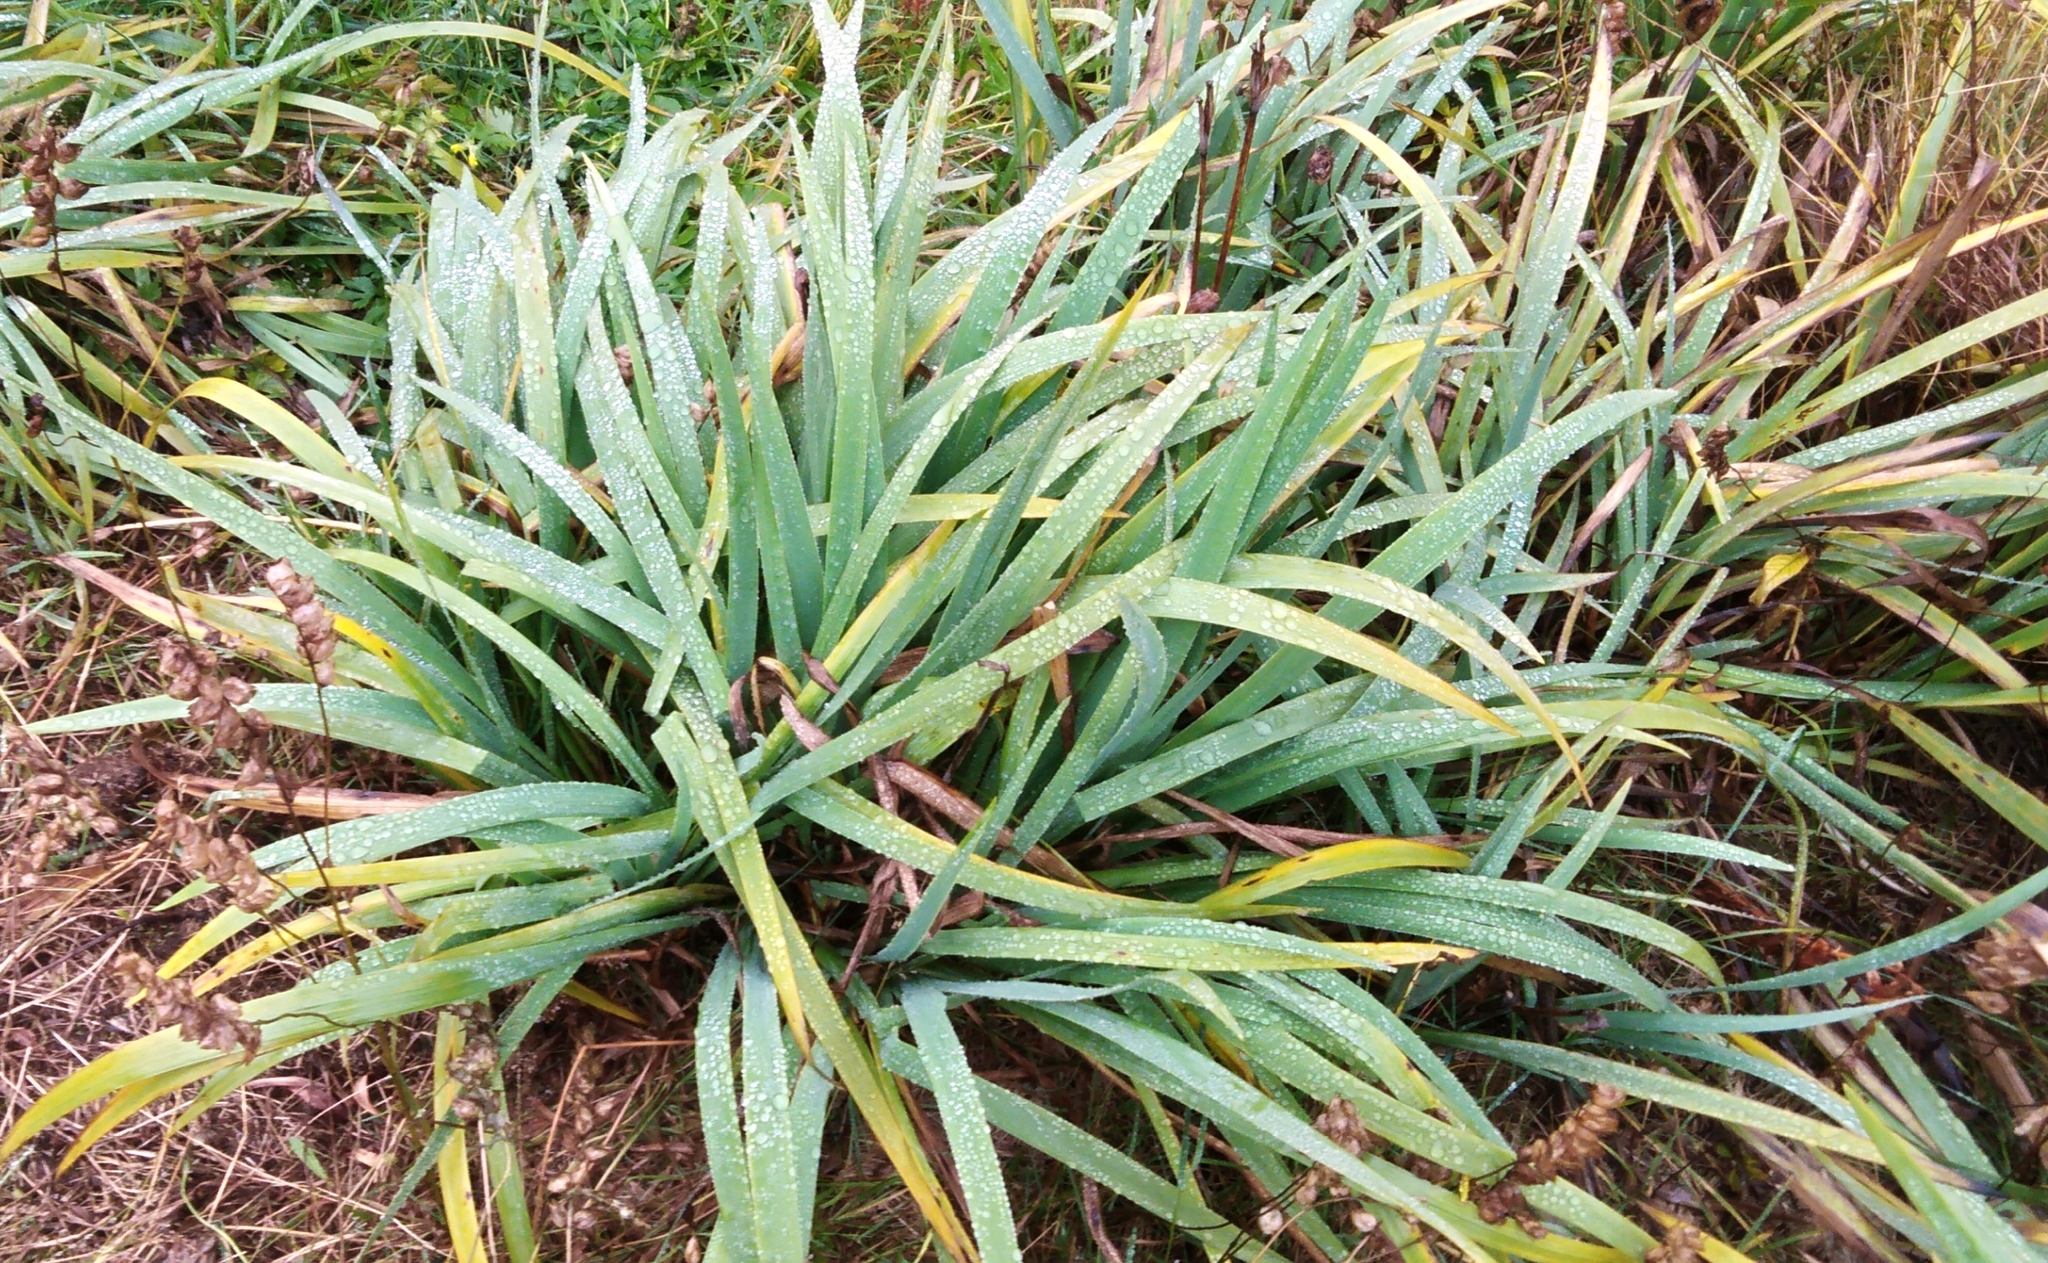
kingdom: Plantae
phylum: Tracheophyta
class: Liliopsida
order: Asparagales
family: Iridaceae
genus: Iris
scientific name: Iris setosa
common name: Arctic blue flag
